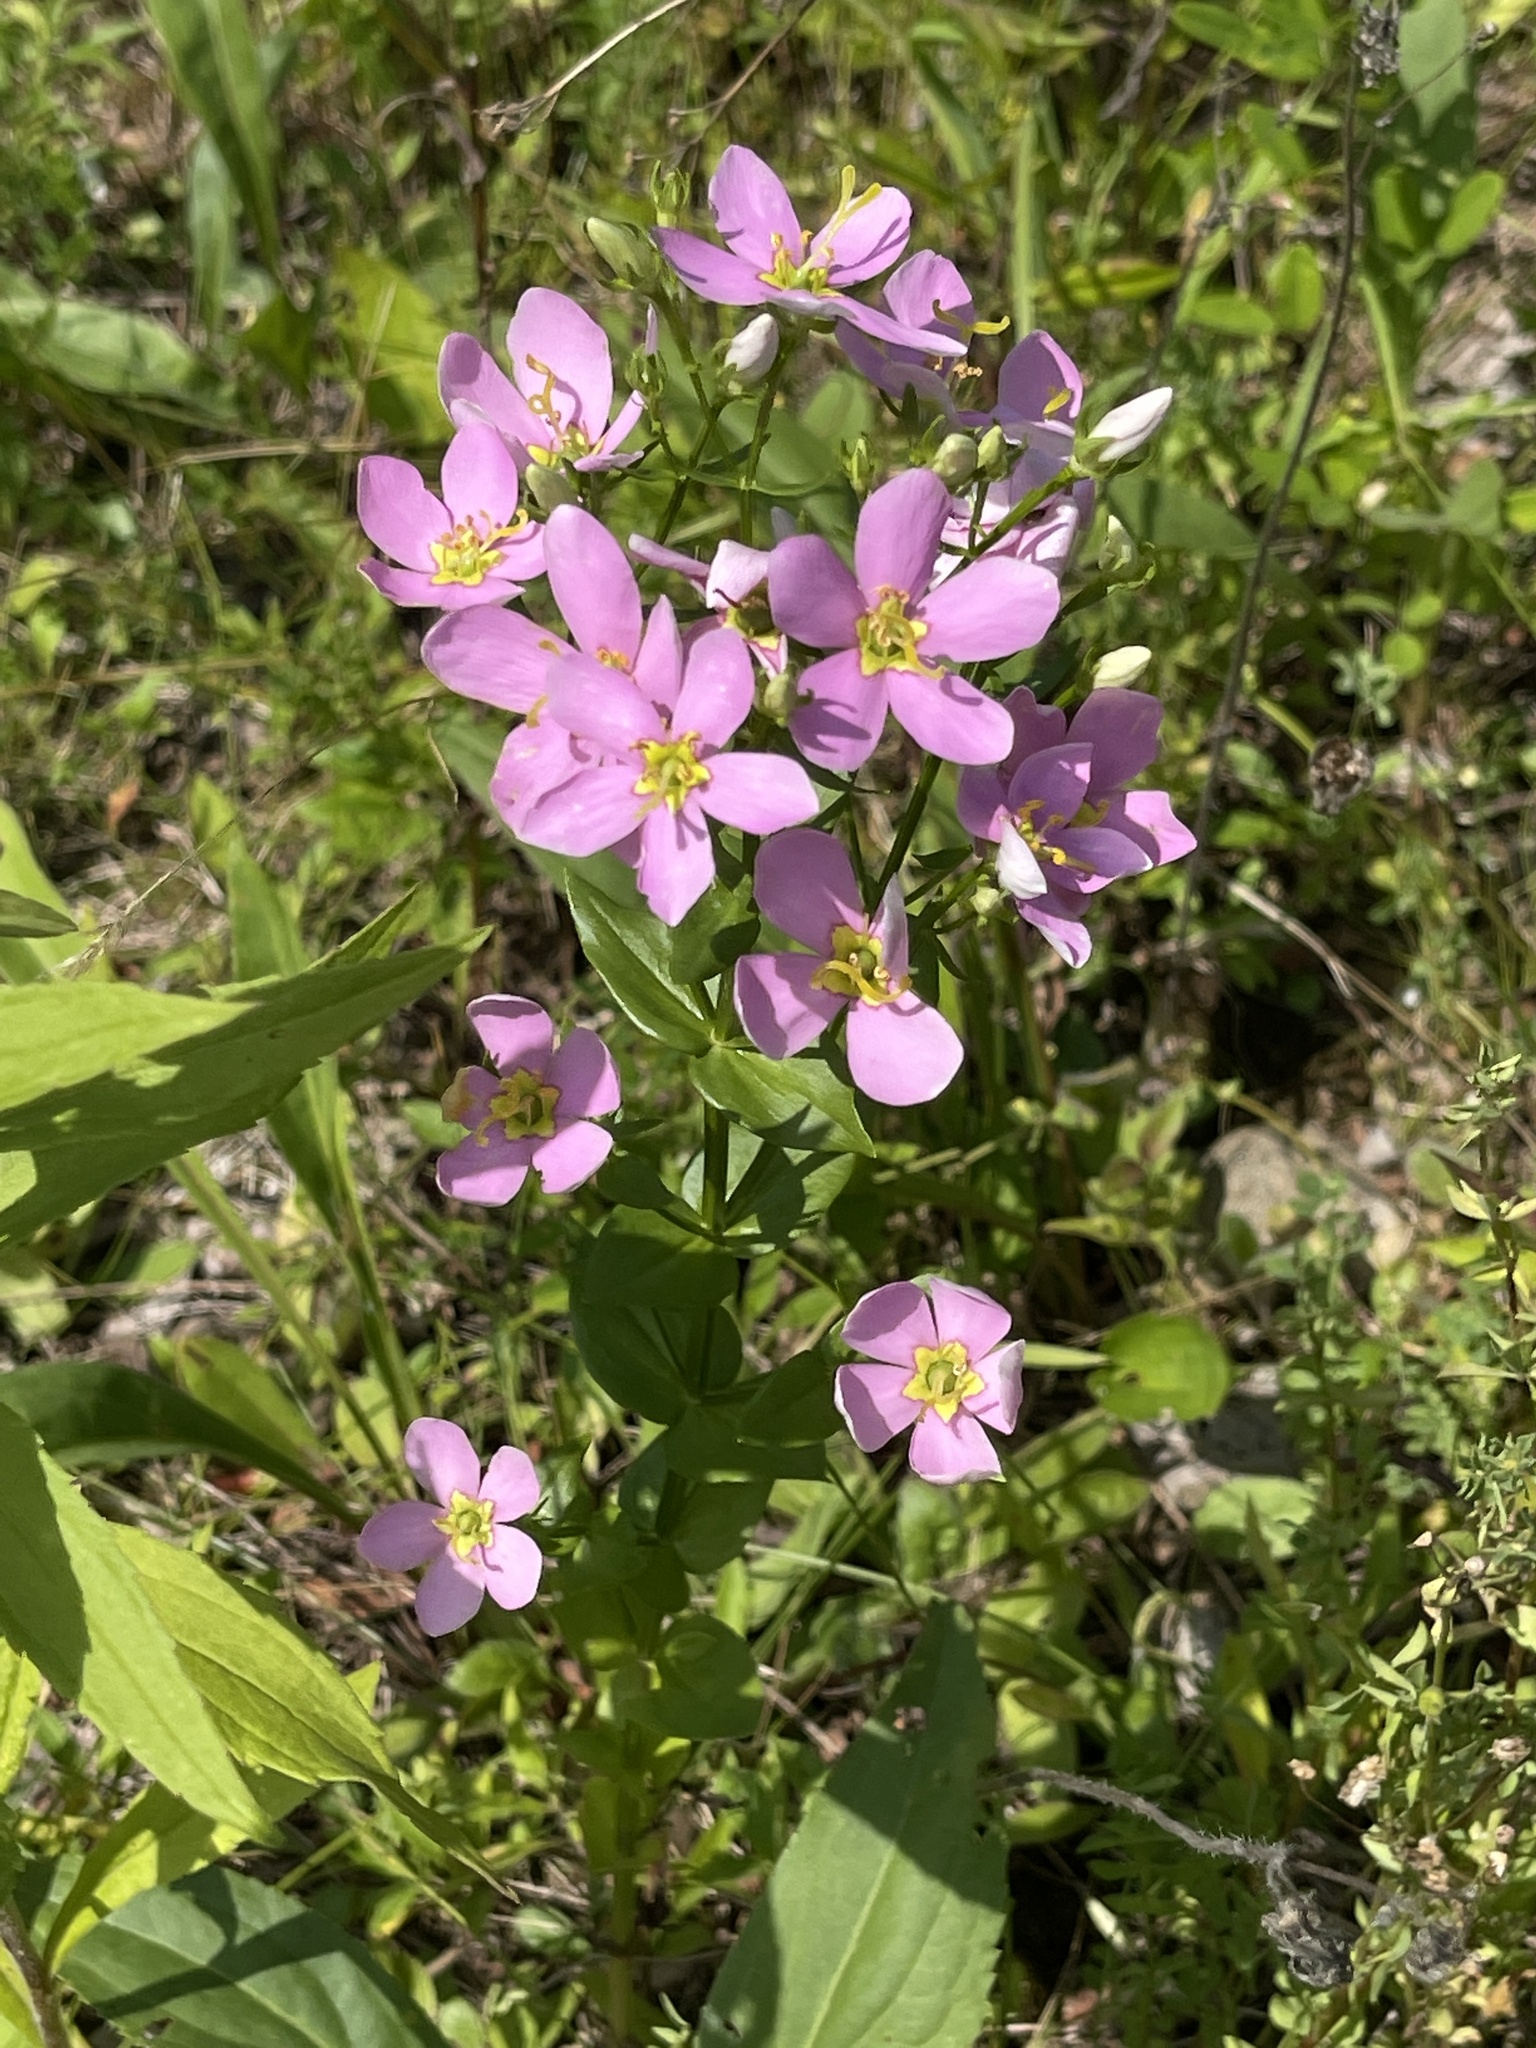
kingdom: Plantae
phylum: Tracheophyta
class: Magnoliopsida
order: Gentianales
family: Gentianaceae
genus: Sabatia
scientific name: Sabatia angularis
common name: Rose-pink
